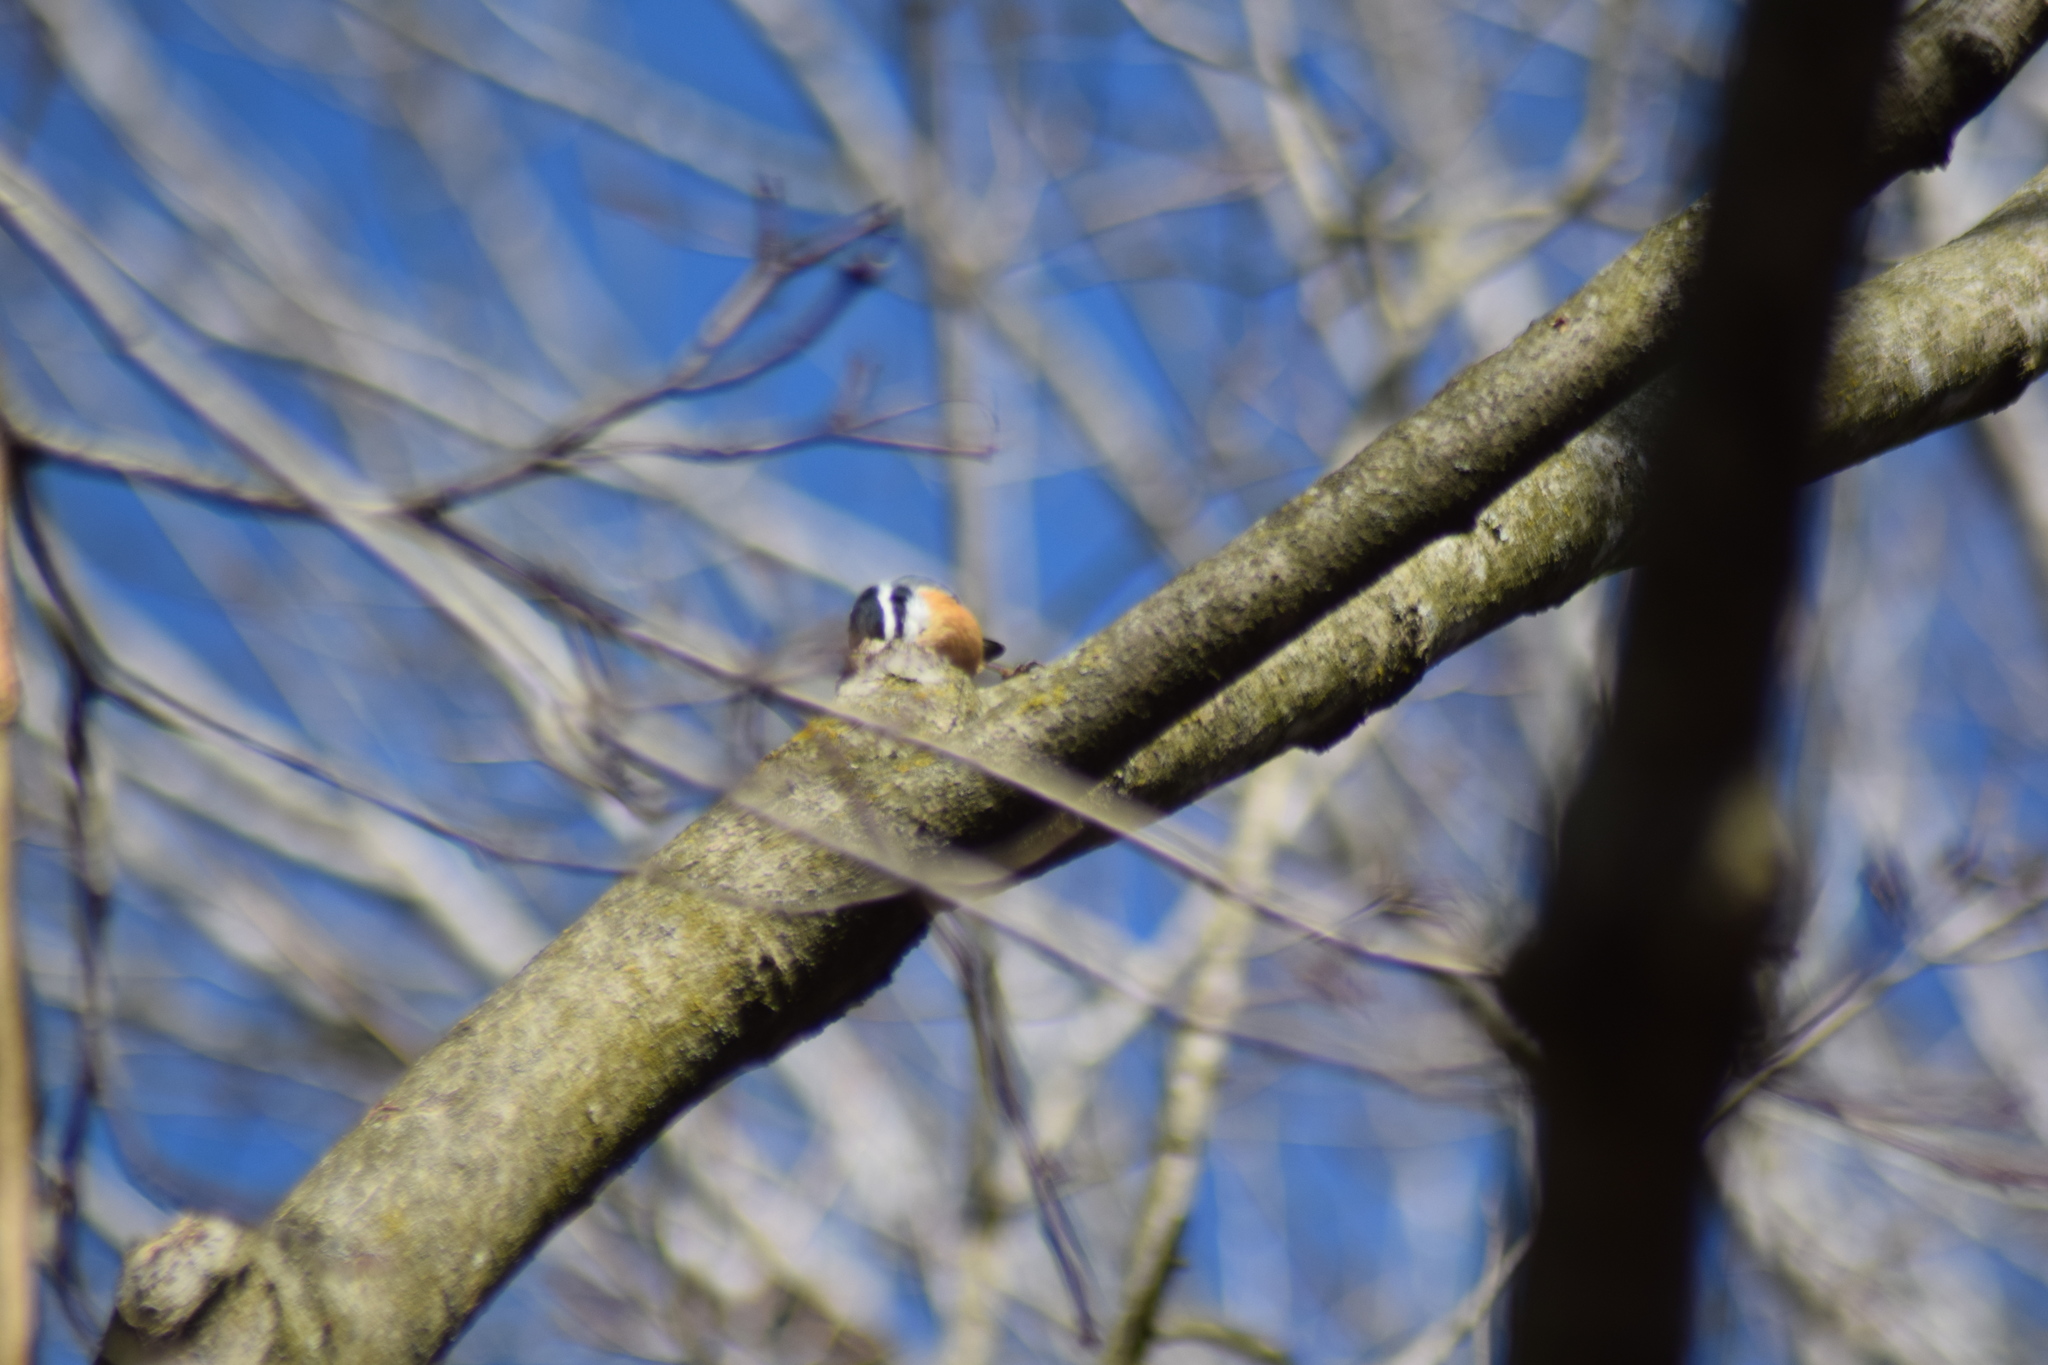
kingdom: Animalia
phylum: Chordata
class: Aves
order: Passeriformes
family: Sittidae
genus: Sitta
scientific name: Sitta canadensis
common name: Red-breasted nuthatch
